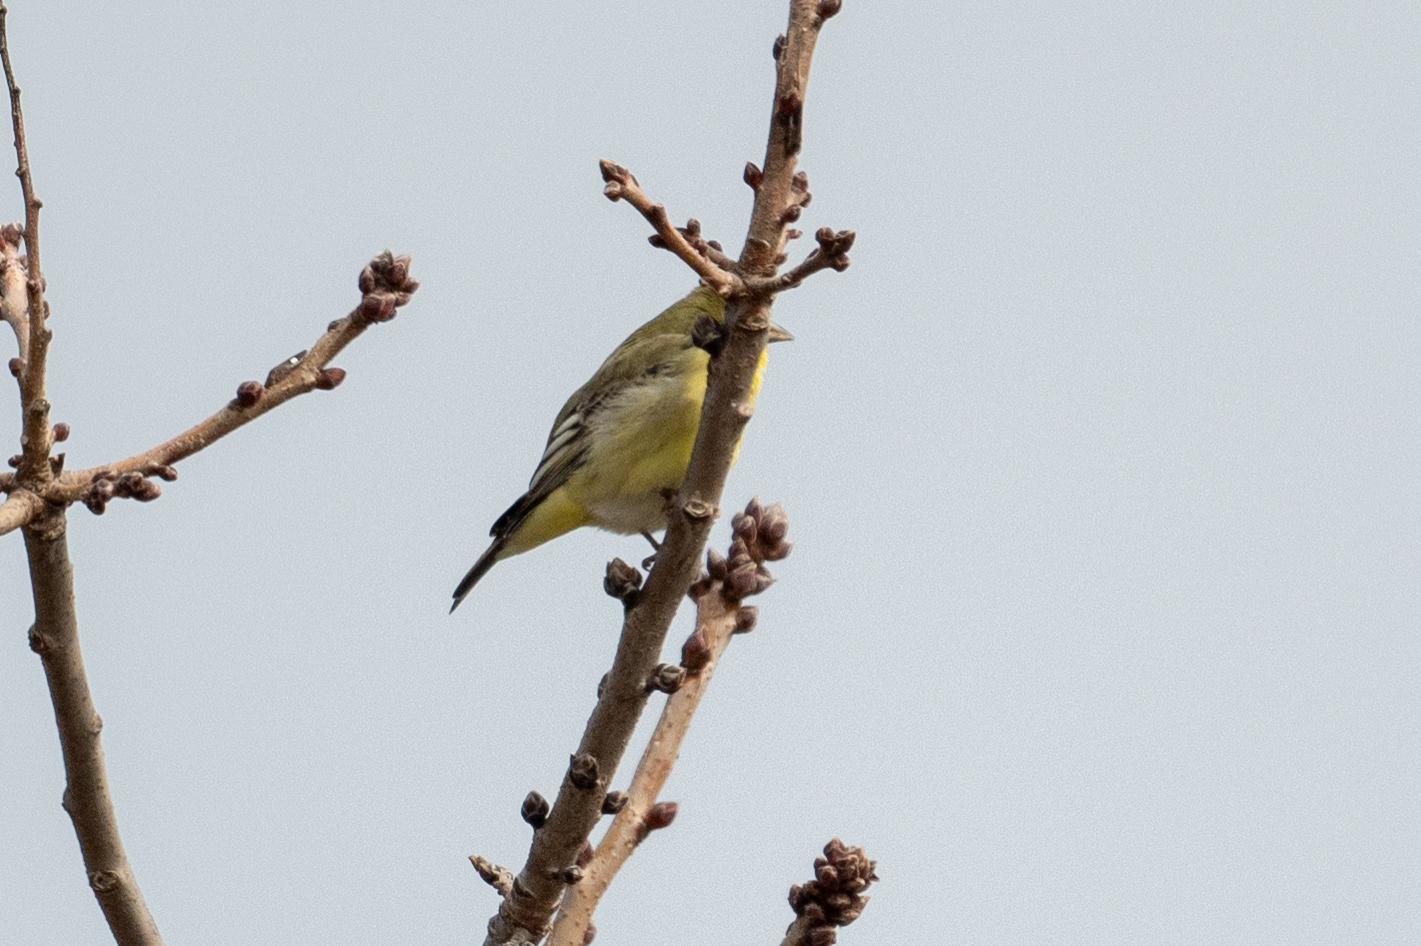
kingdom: Animalia
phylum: Chordata
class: Aves
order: Passeriformes
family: Fringillidae
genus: Spinus
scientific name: Spinus psaltria
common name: Lesser goldfinch
